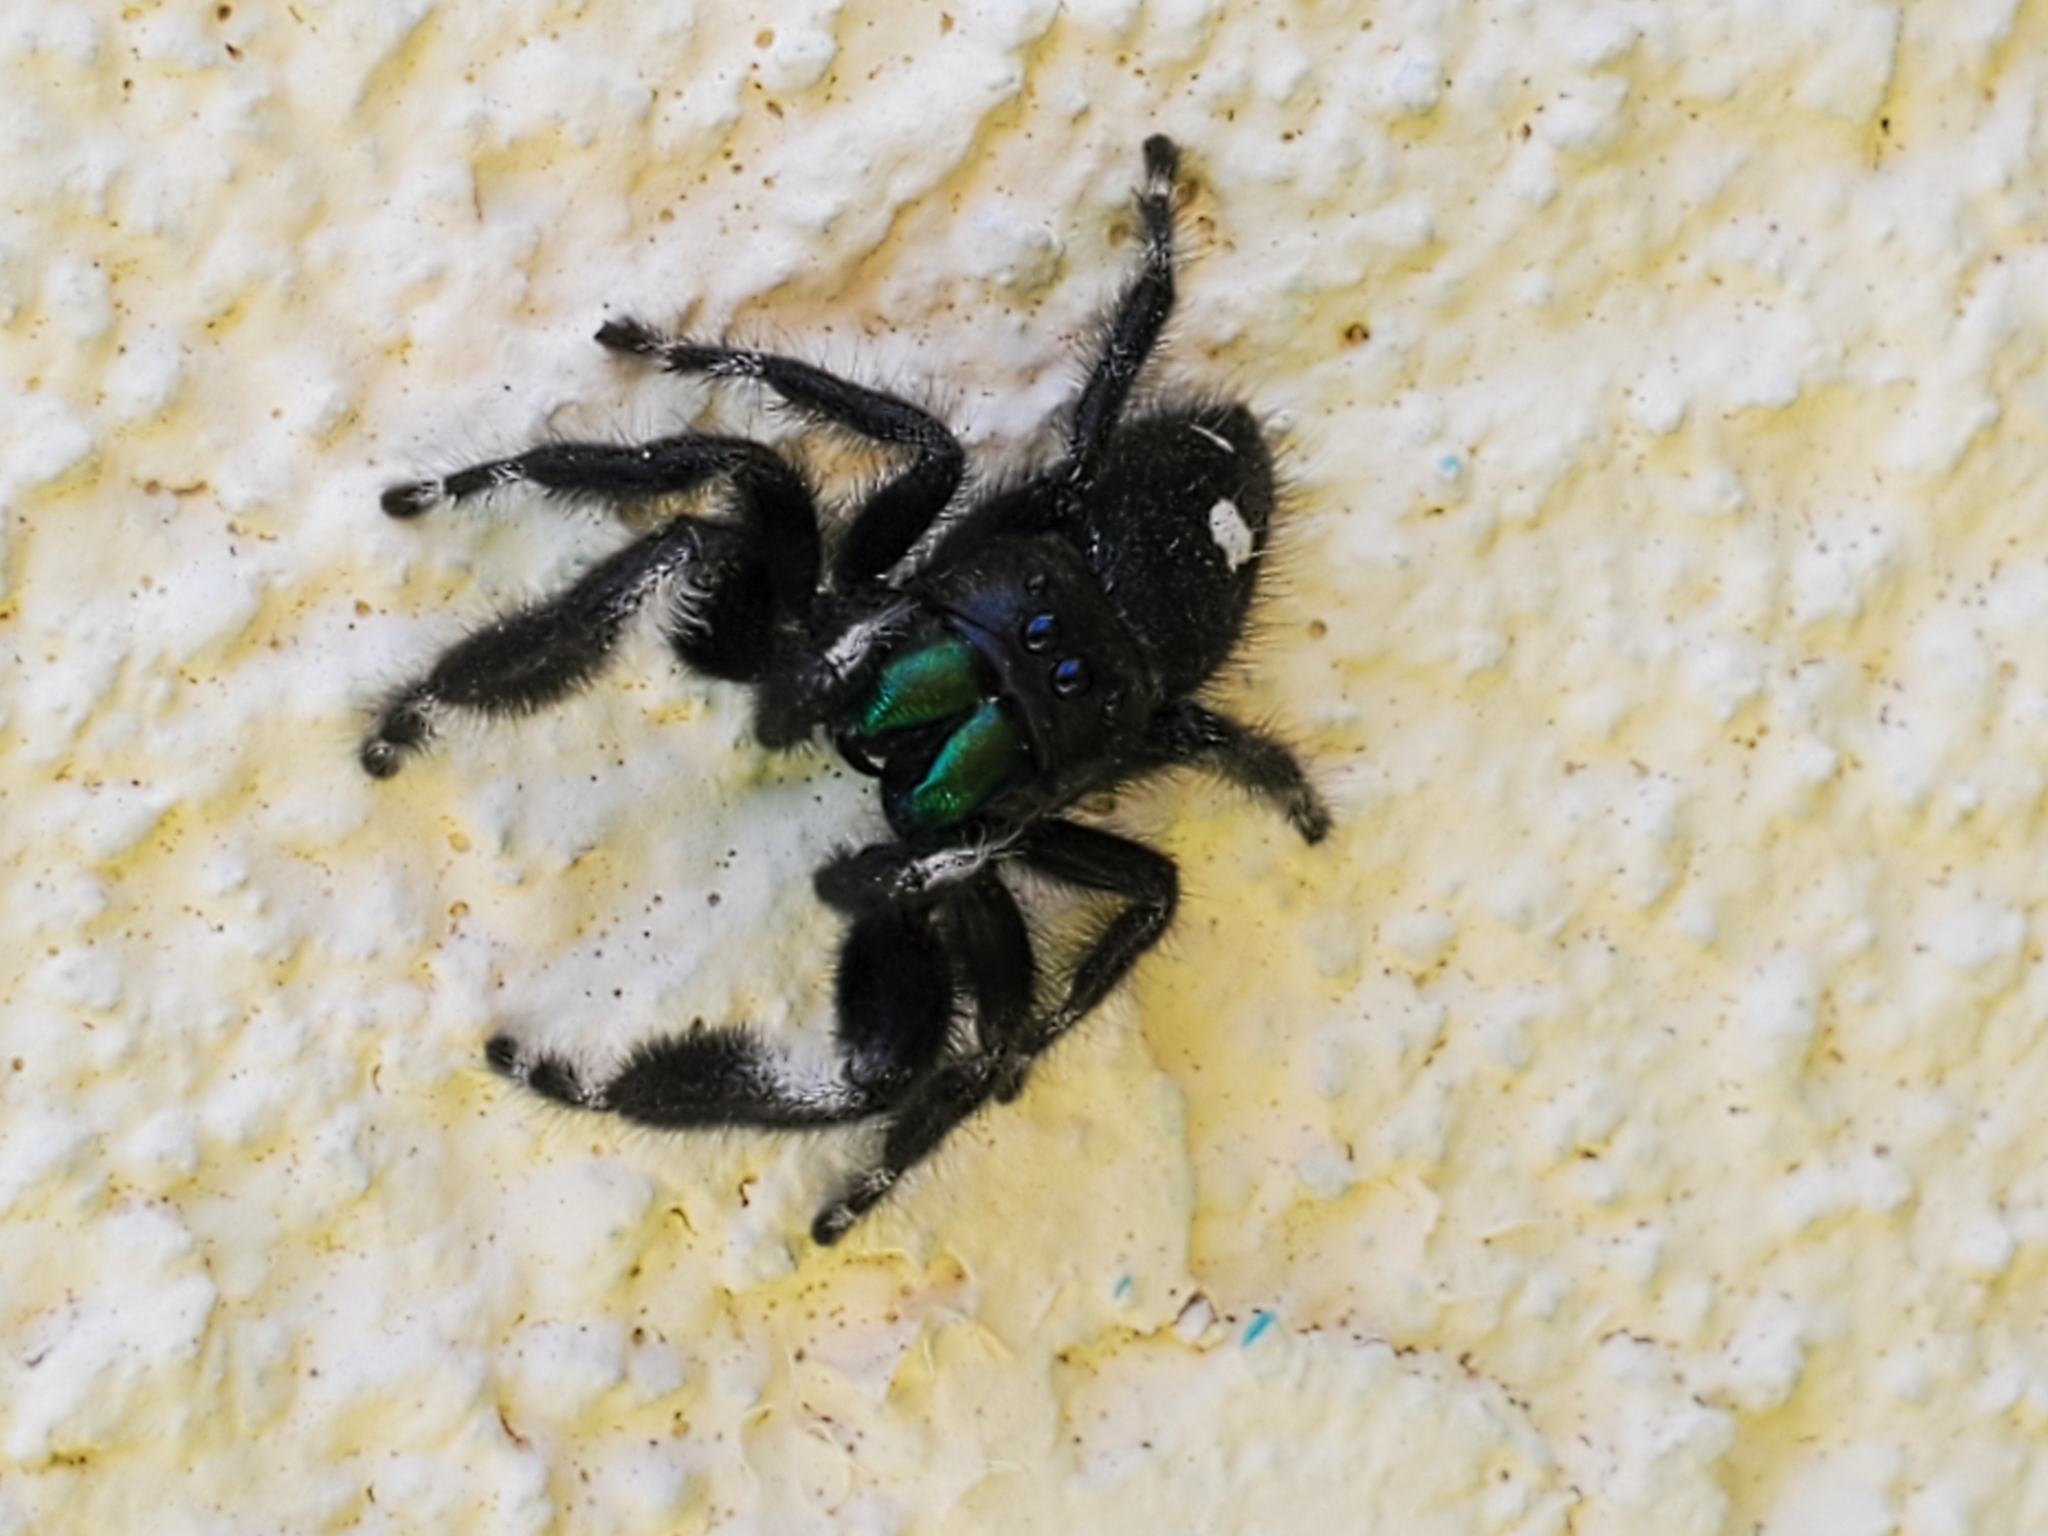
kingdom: Animalia
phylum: Arthropoda
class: Arachnida
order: Araneae
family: Salticidae
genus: Phidippus
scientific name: Phidippus audax
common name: Bold jumper
